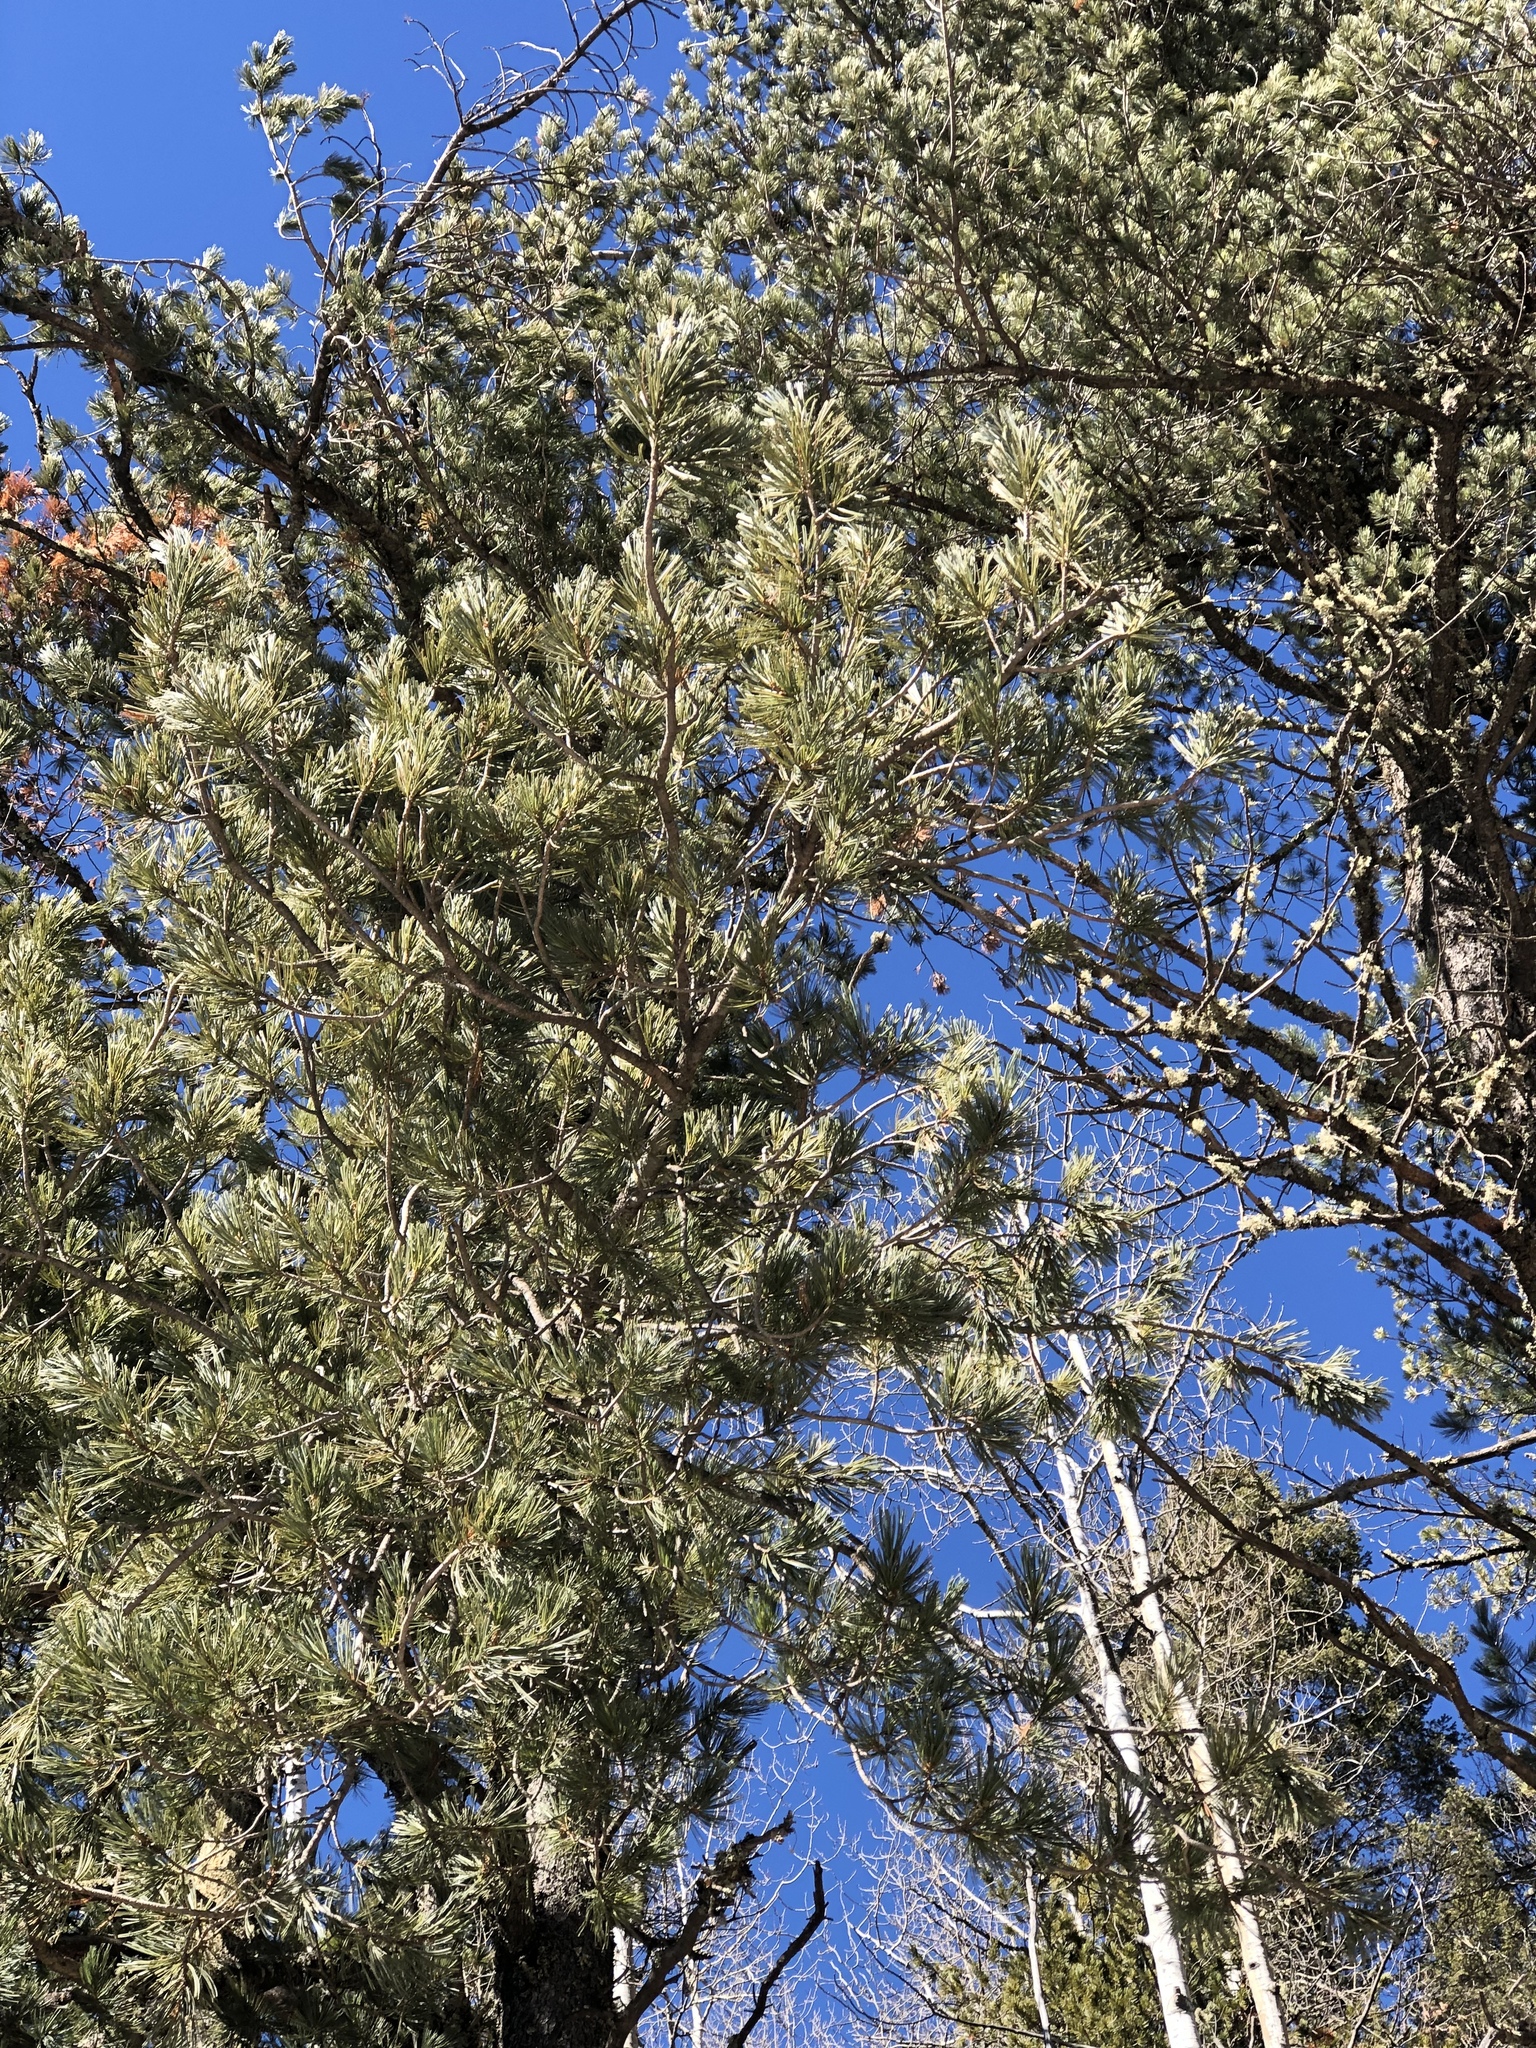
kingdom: Plantae
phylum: Tracheophyta
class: Pinopsida
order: Pinales
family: Pinaceae
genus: Pinus
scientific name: Pinus strobiformis
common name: Southwestern white pine
